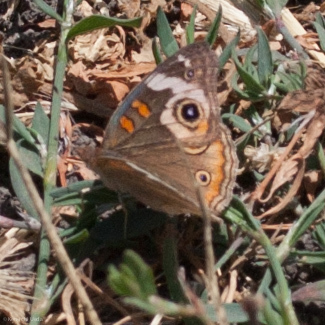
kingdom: Animalia
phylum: Arthropoda
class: Insecta
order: Lepidoptera
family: Nymphalidae
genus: Junonia
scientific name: Junonia grisea
